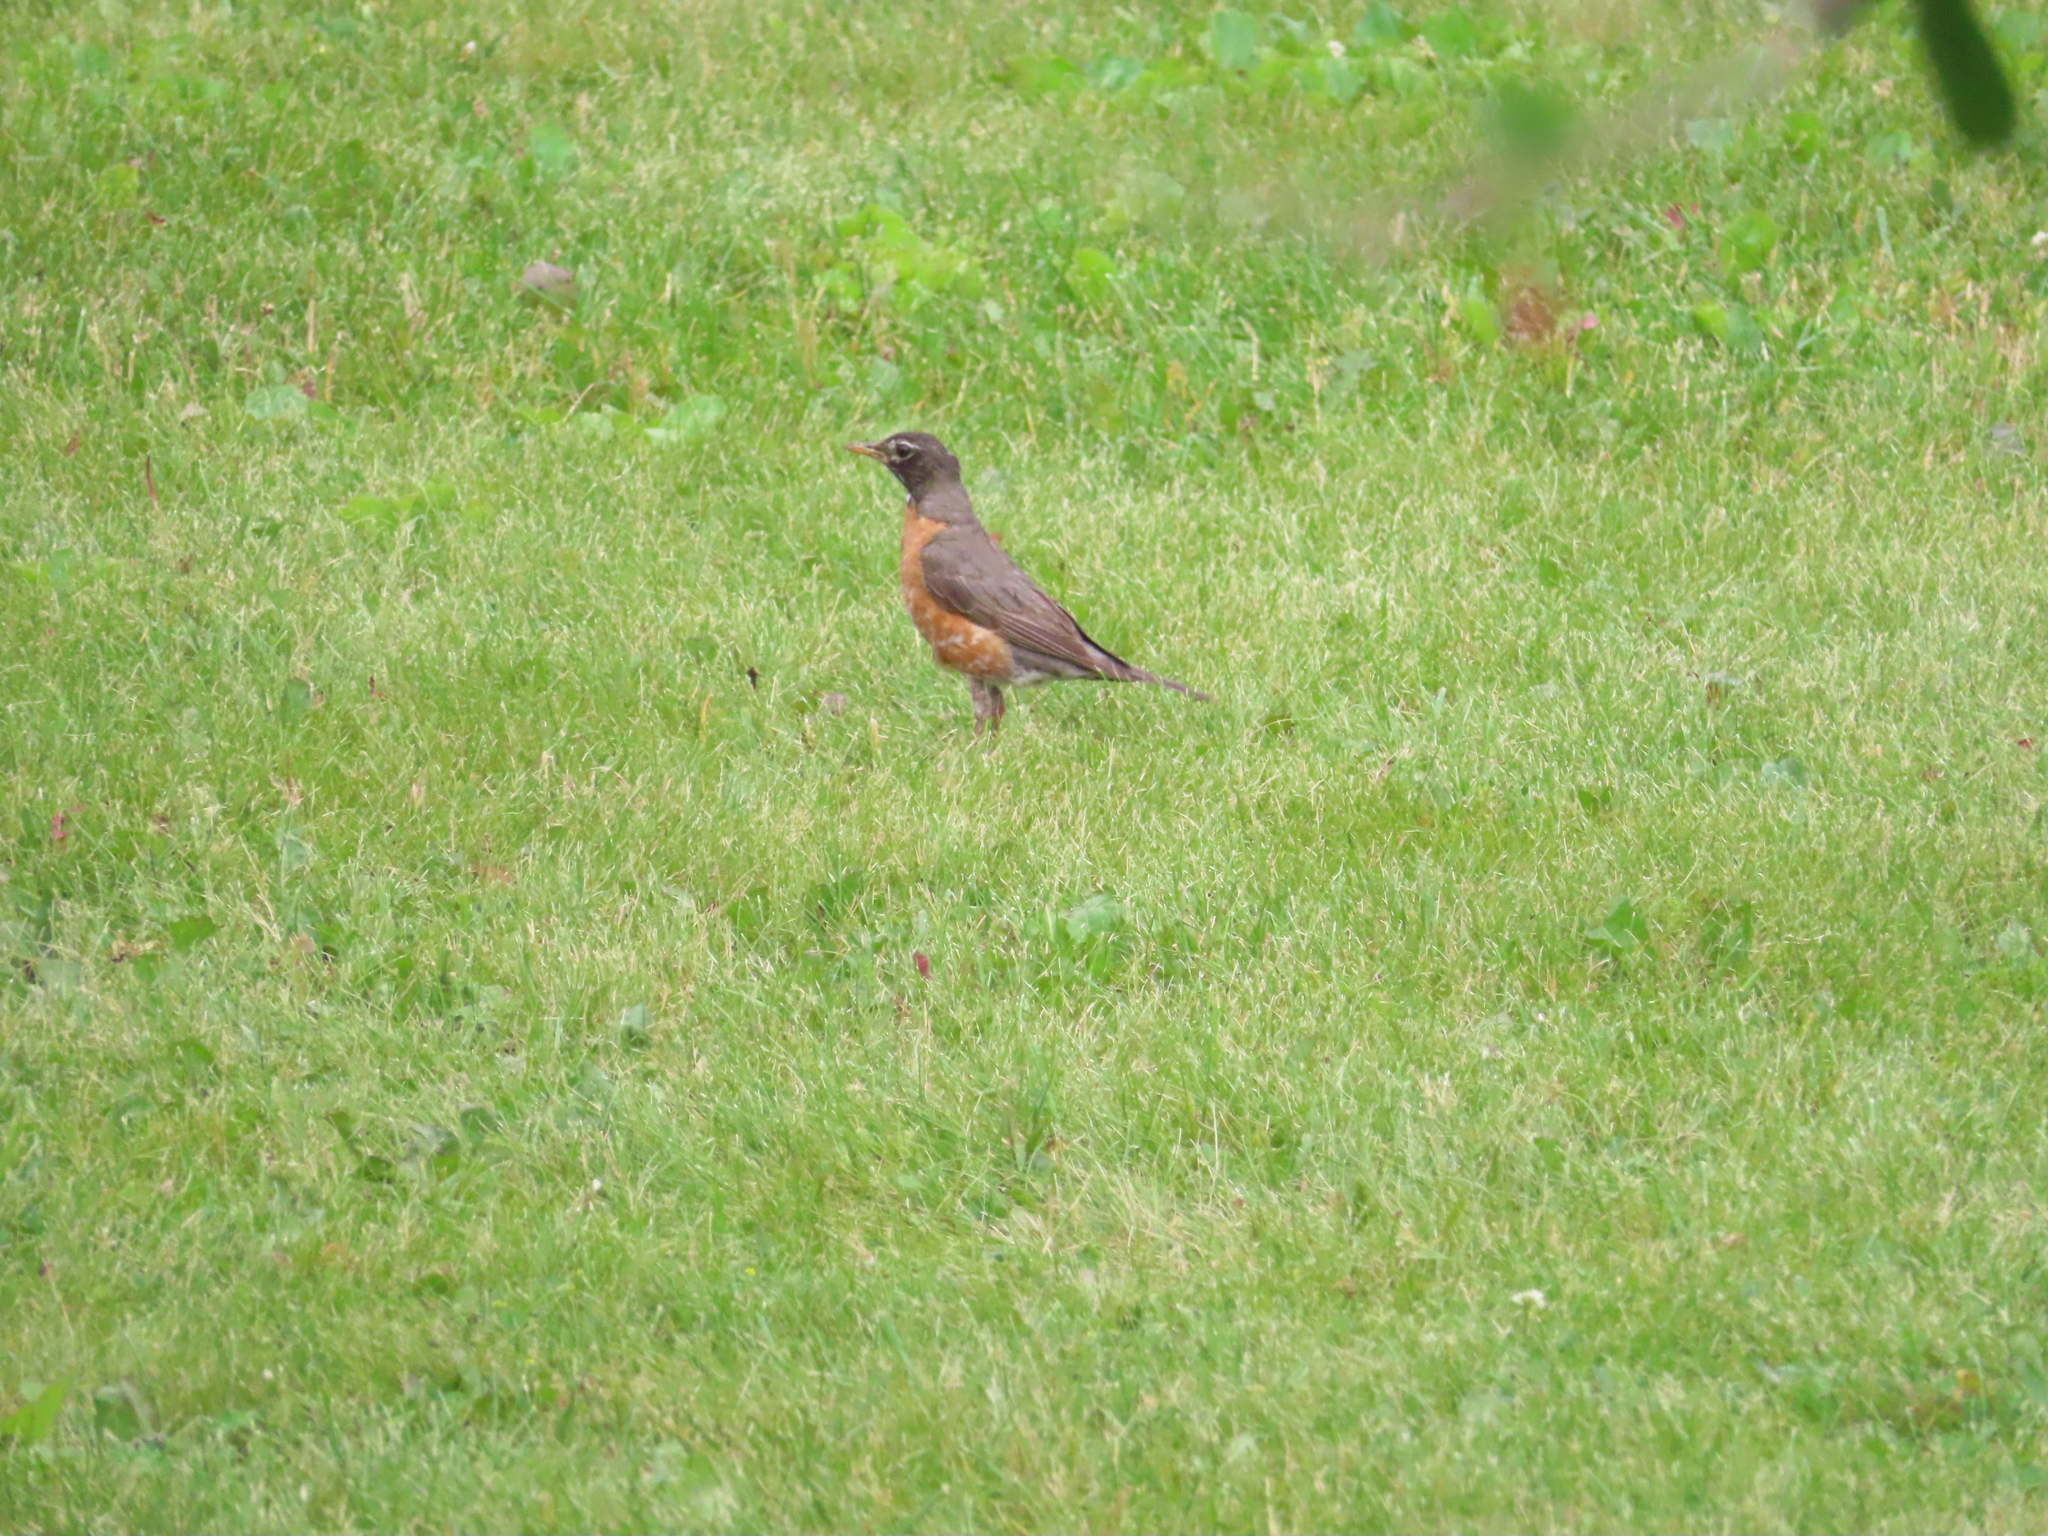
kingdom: Animalia
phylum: Chordata
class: Aves
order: Passeriformes
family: Turdidae
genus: Turdus
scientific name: Turdus migratorius
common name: American robin
